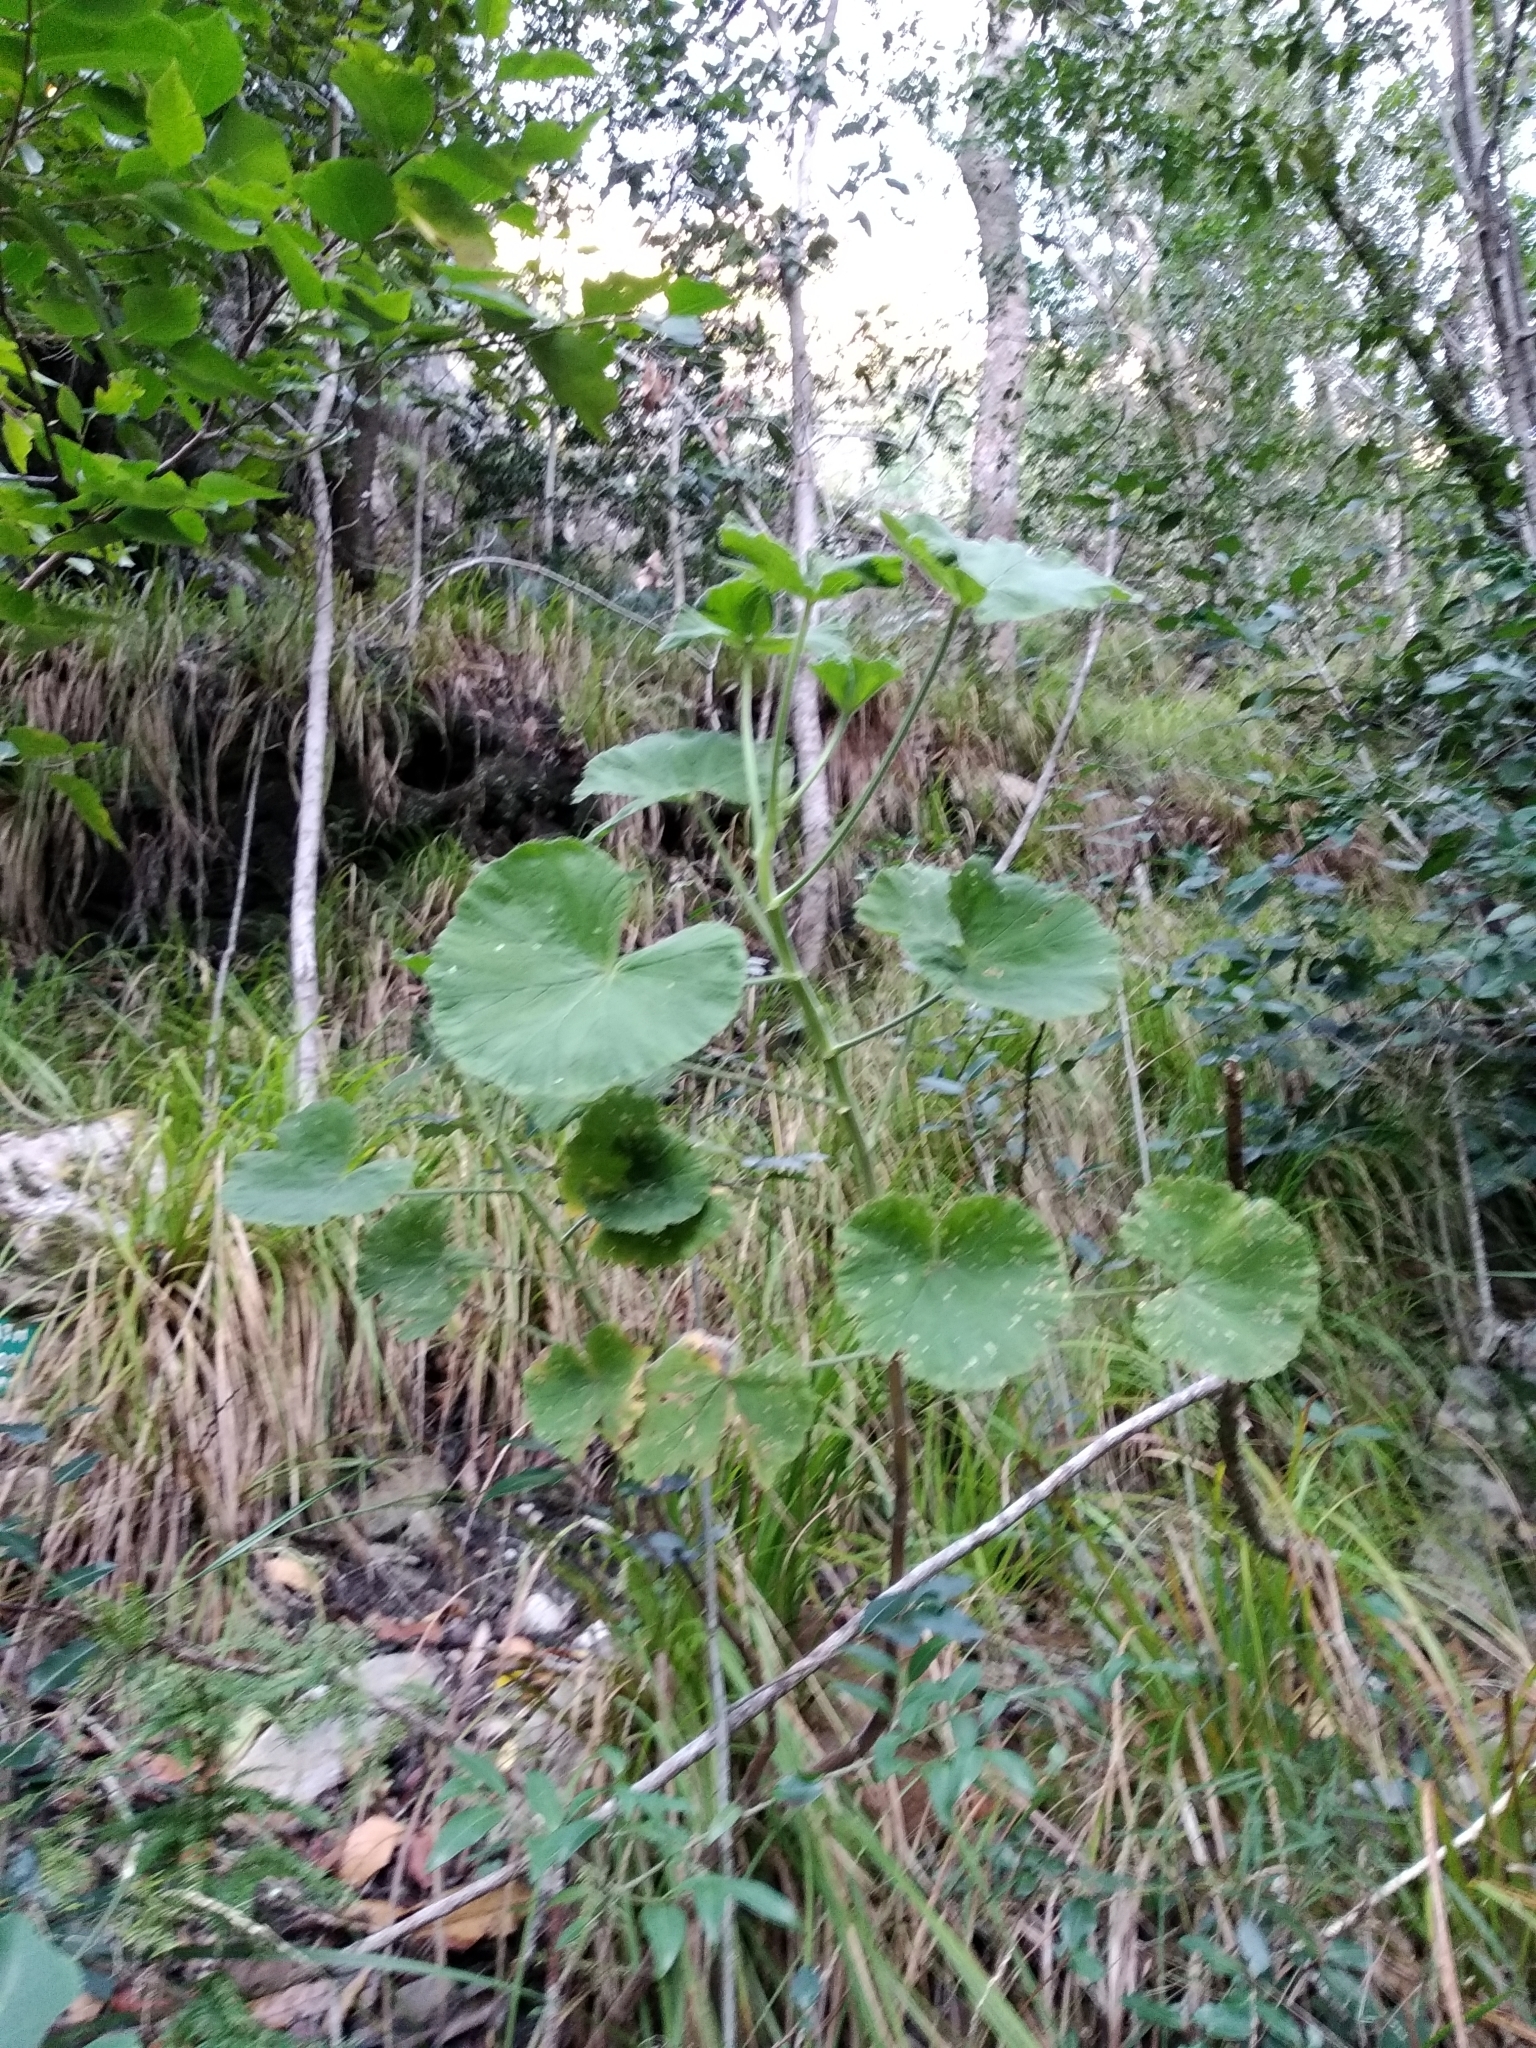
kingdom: Plantae
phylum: Tracheophyta
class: Magnoliopsida
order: Geraniales
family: Geraniaceae
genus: Pelargonium
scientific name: Pelargonium cucullatum
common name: Tree pelargonium
